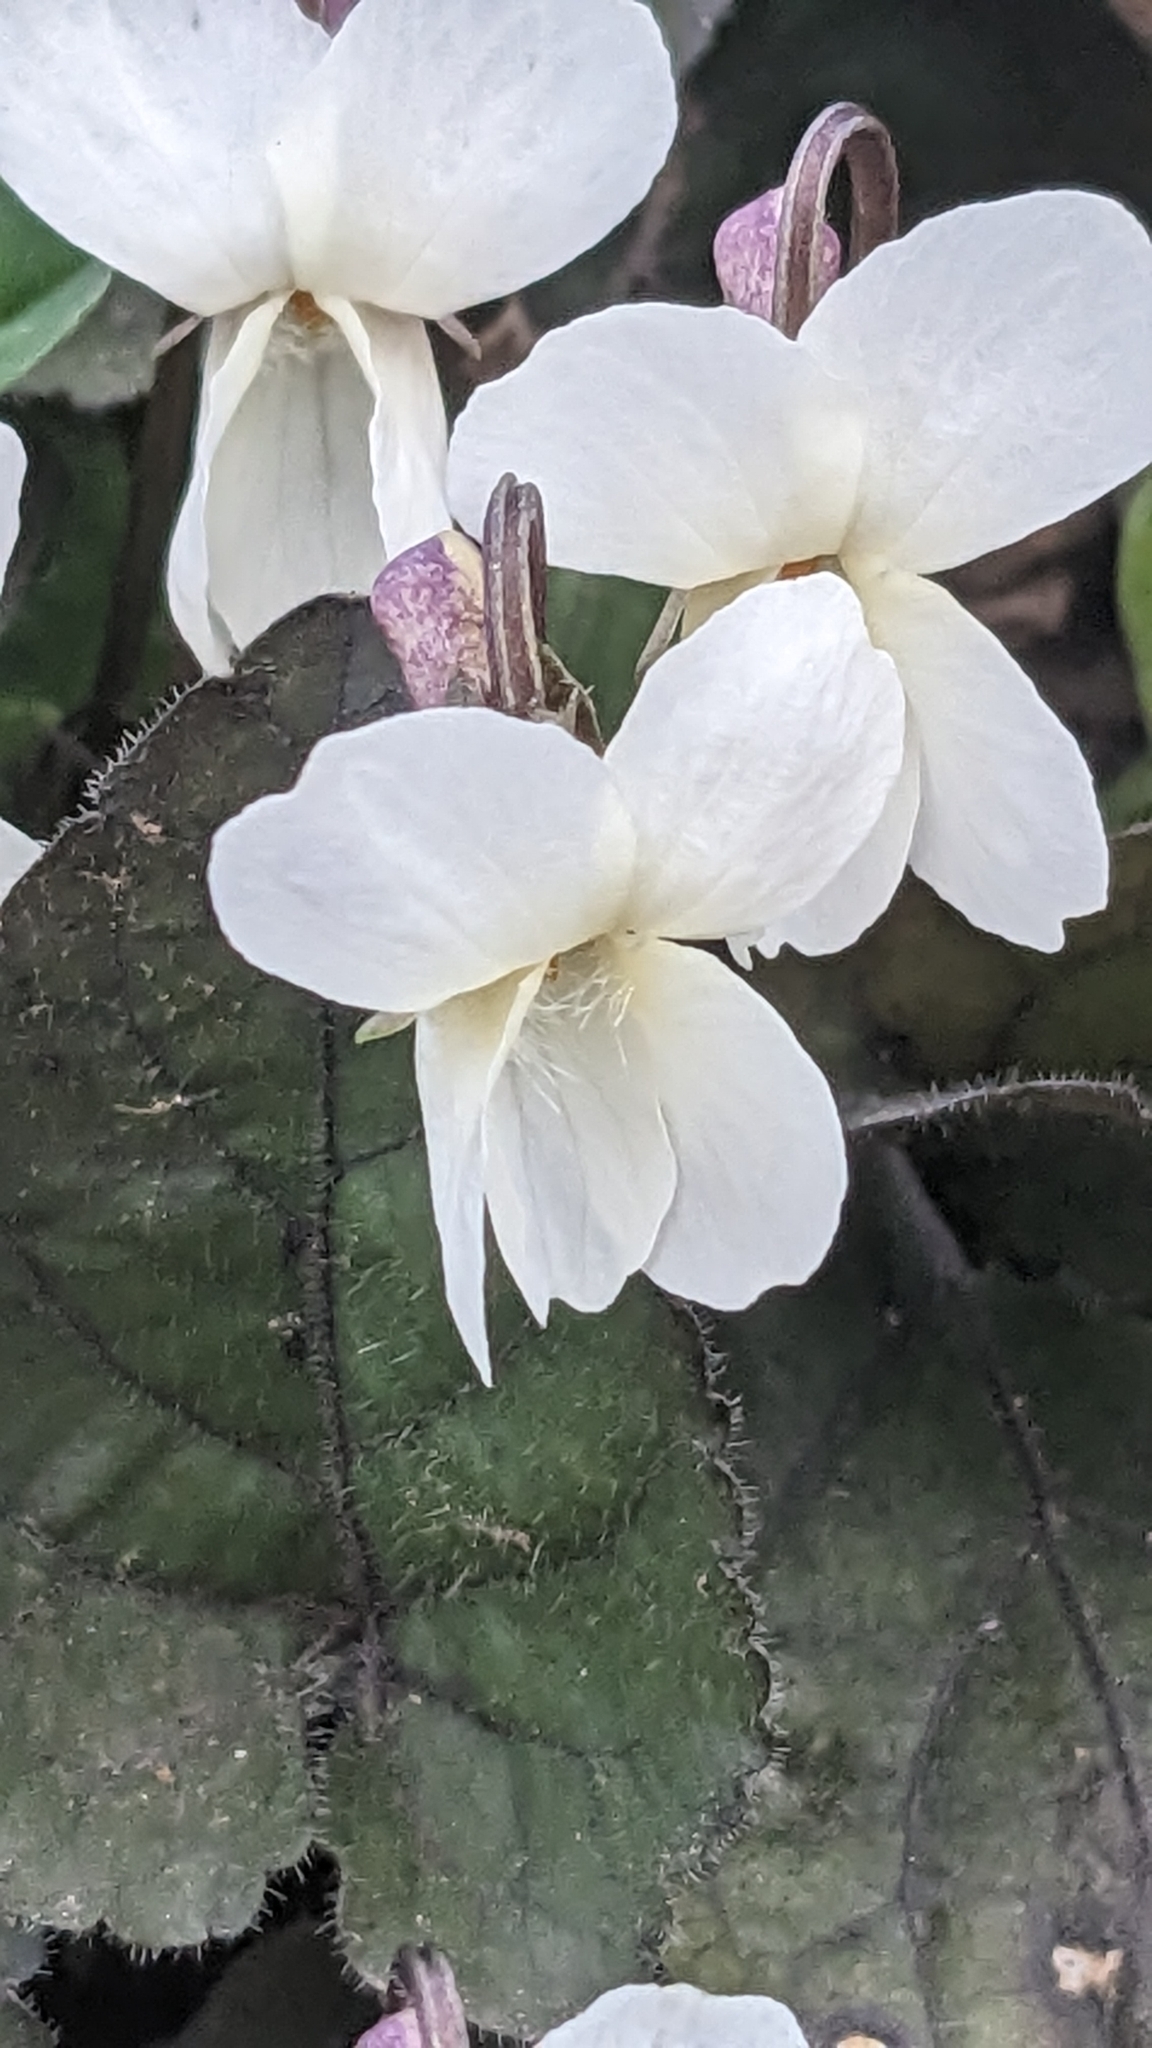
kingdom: Plantae
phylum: Tracheophyta
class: Magnoliopsida
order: Malpighiales
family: Violaceae
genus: Viola
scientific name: Viola alba
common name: White violet
